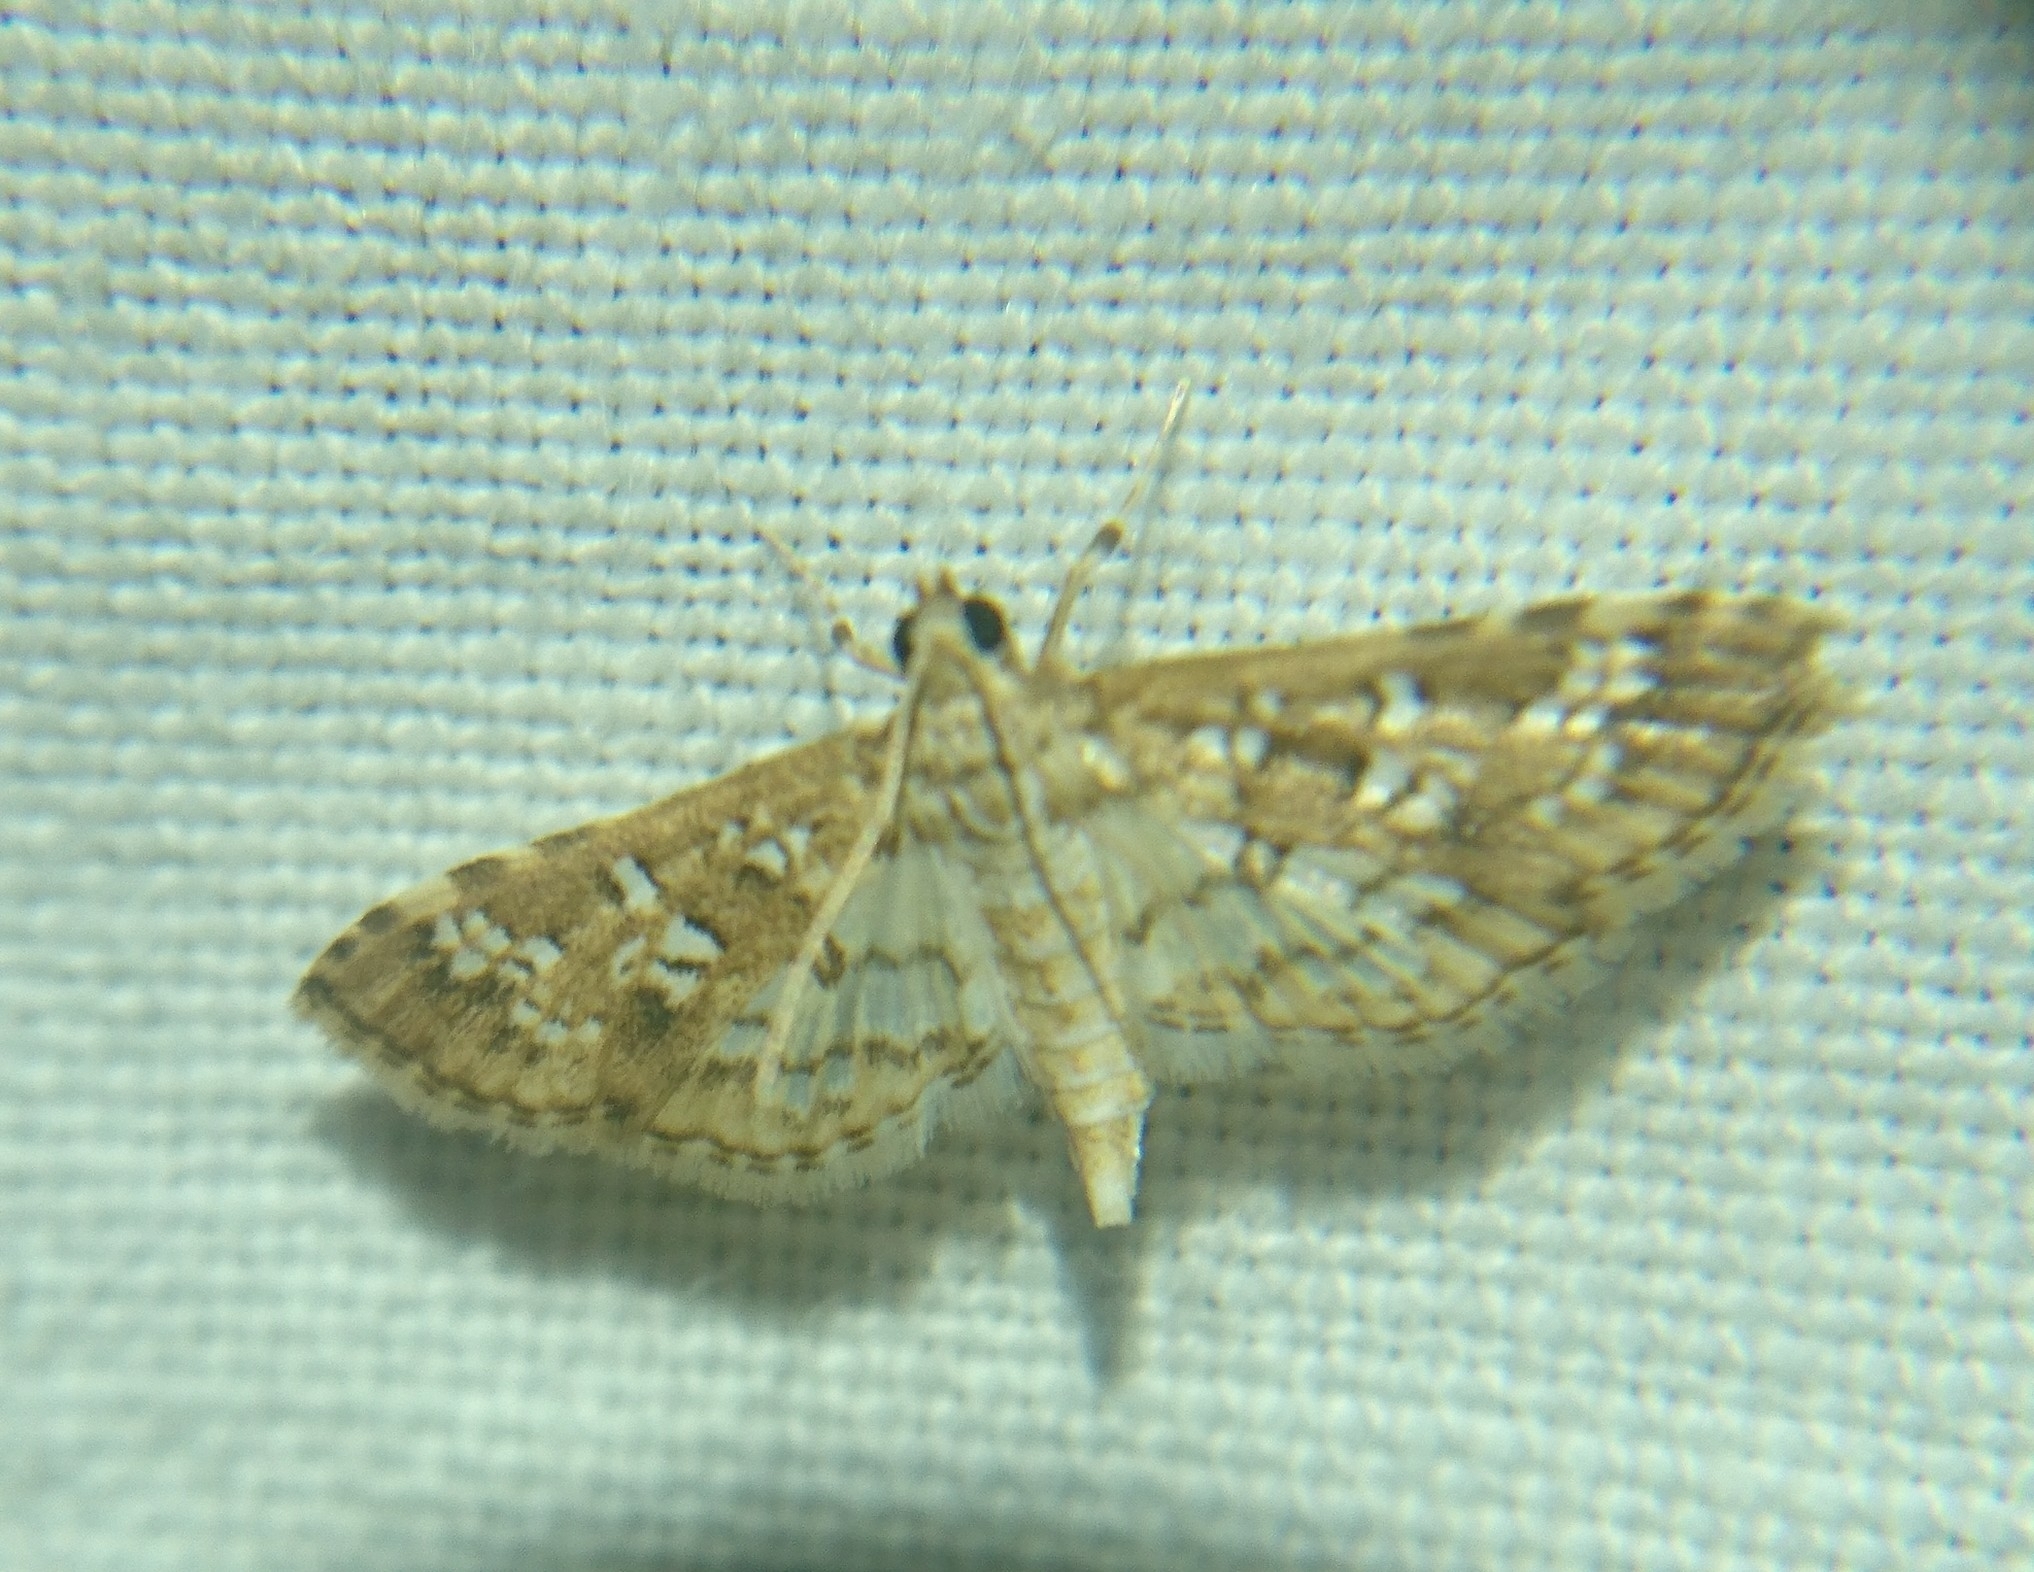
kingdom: Animalia
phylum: Arthropoda
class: Insecta
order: Lepidoptera
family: Crambidae
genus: Samea
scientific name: Samea multiplicalis
